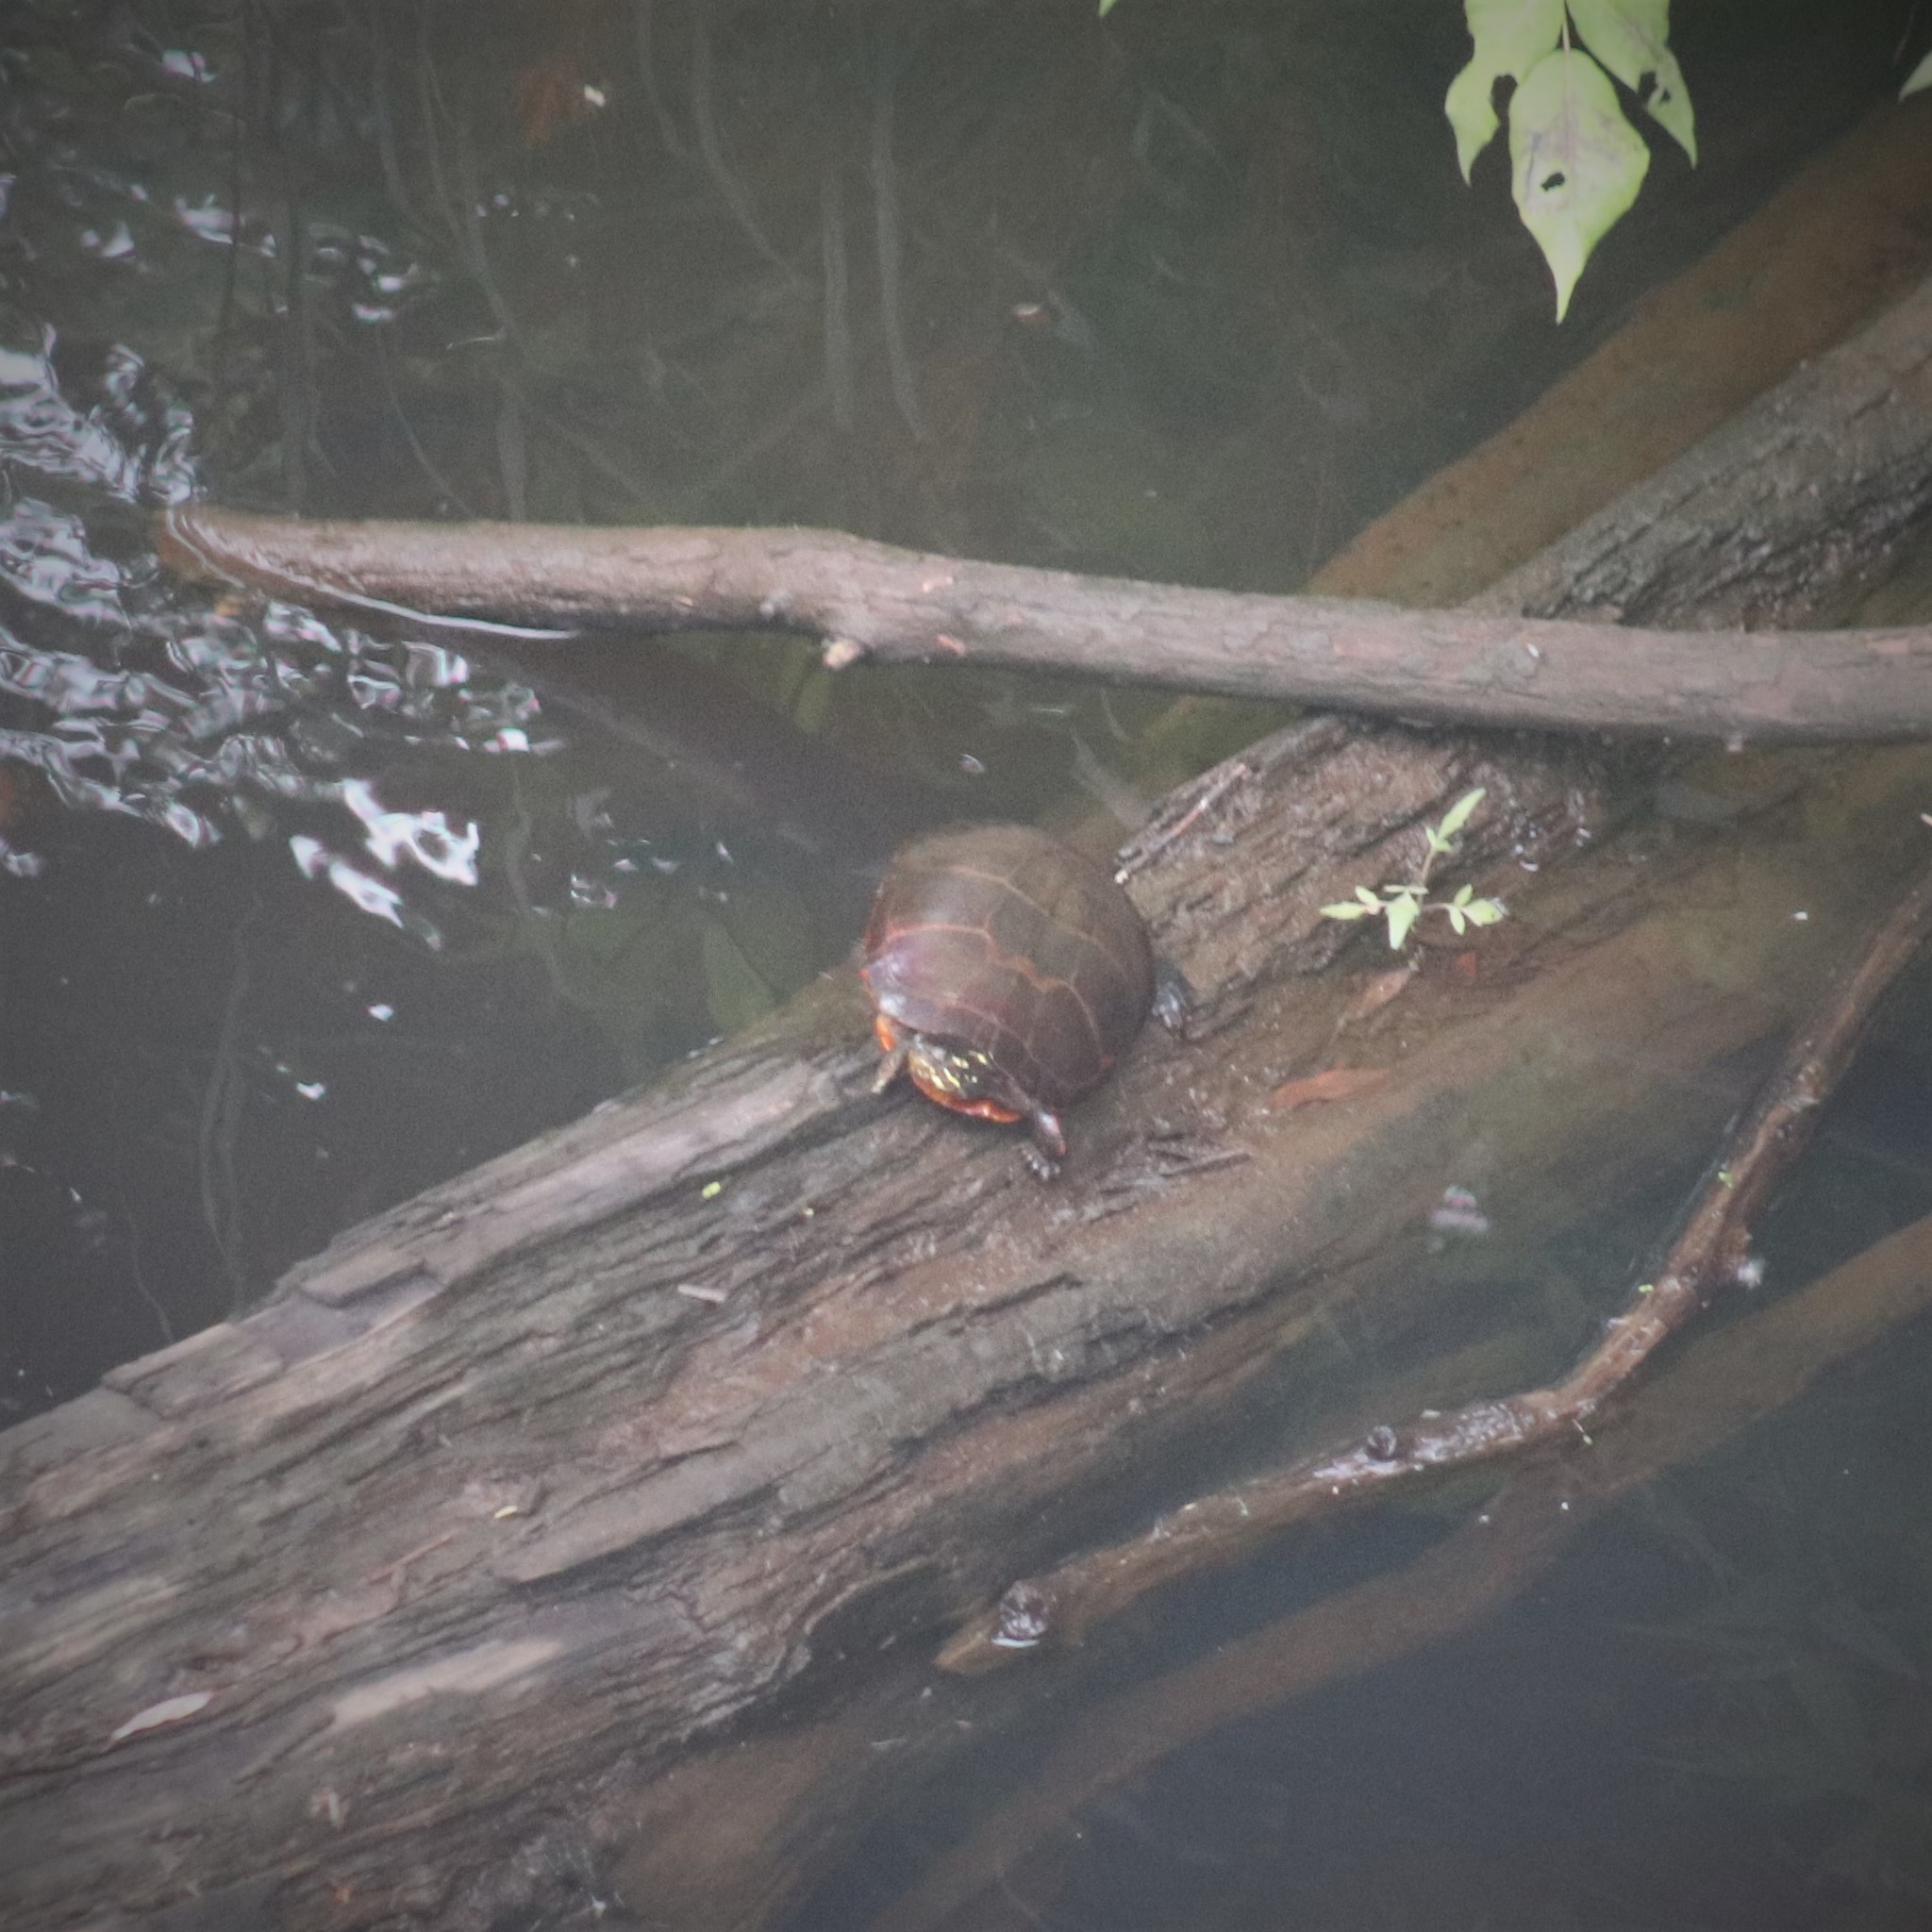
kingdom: Animalia
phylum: Chordata
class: Testudines
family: Emydidae
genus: Chrysemys
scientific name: Chrysemys picta
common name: Painted turtle
